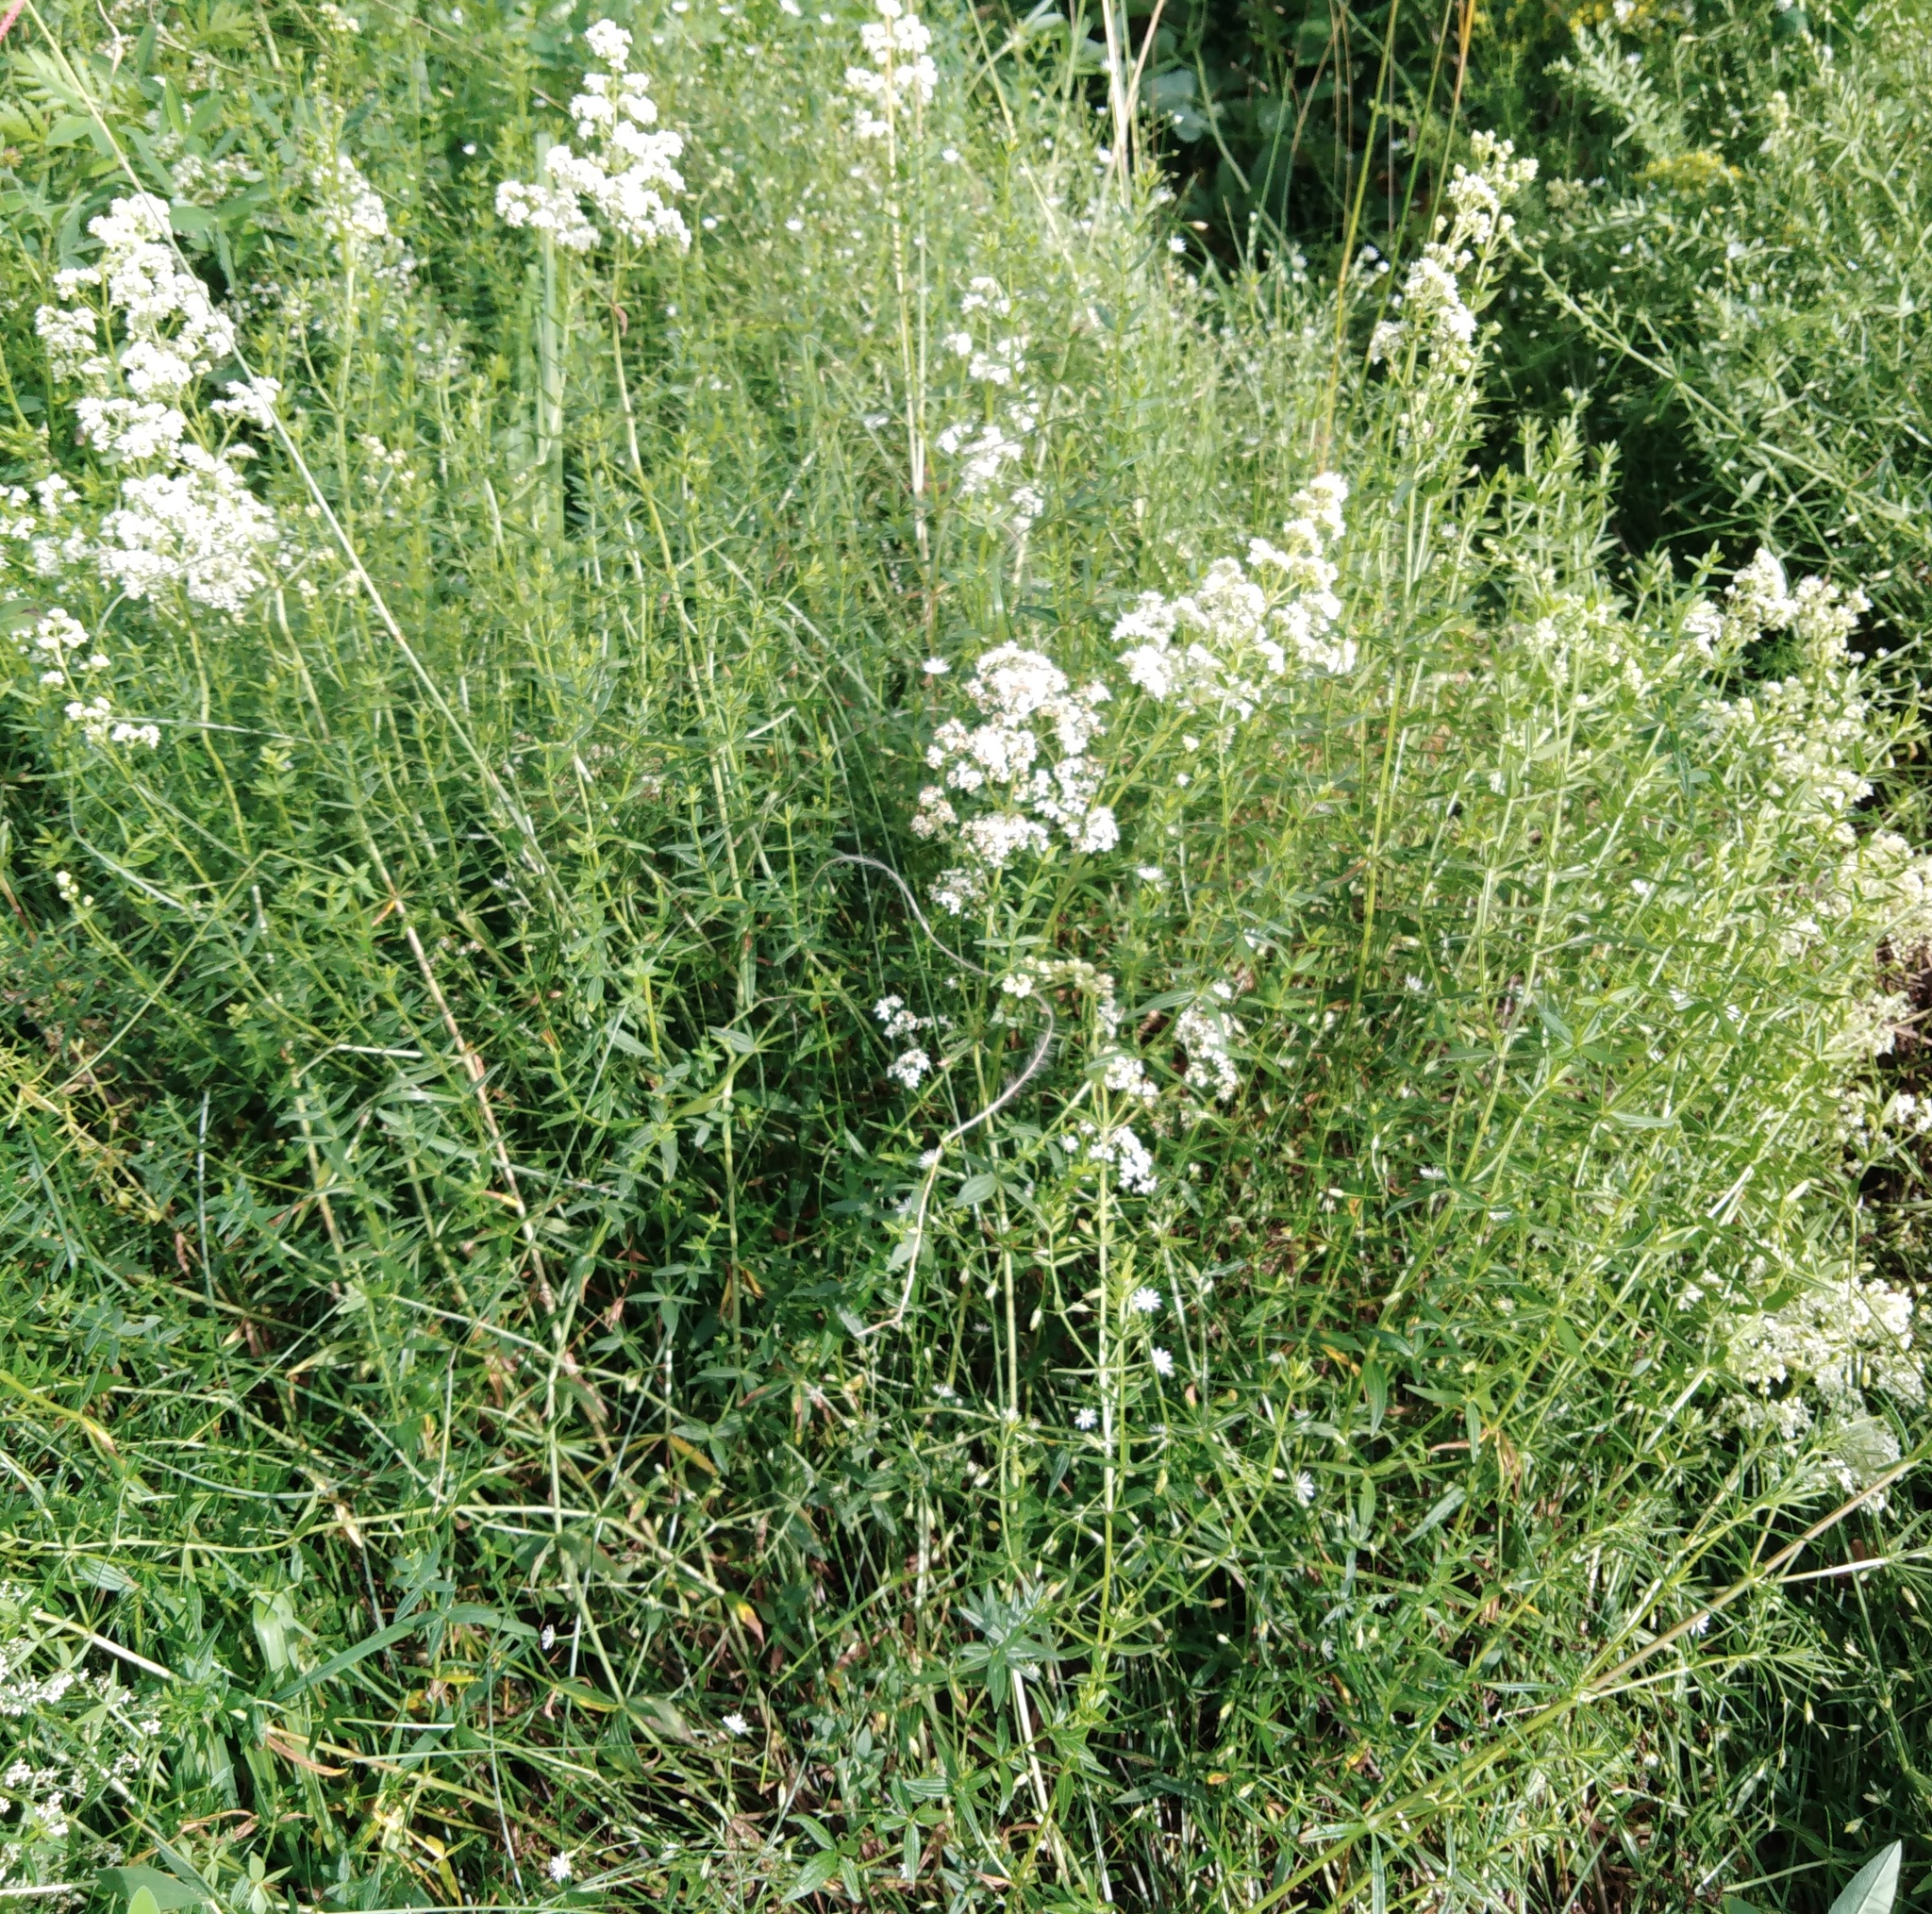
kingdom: Plantae
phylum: Tracheophyta
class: Magnoliopsida
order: Gentianales
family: Rubiaceae
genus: Galium
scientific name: Galium boreale
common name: Northern bedstraw
